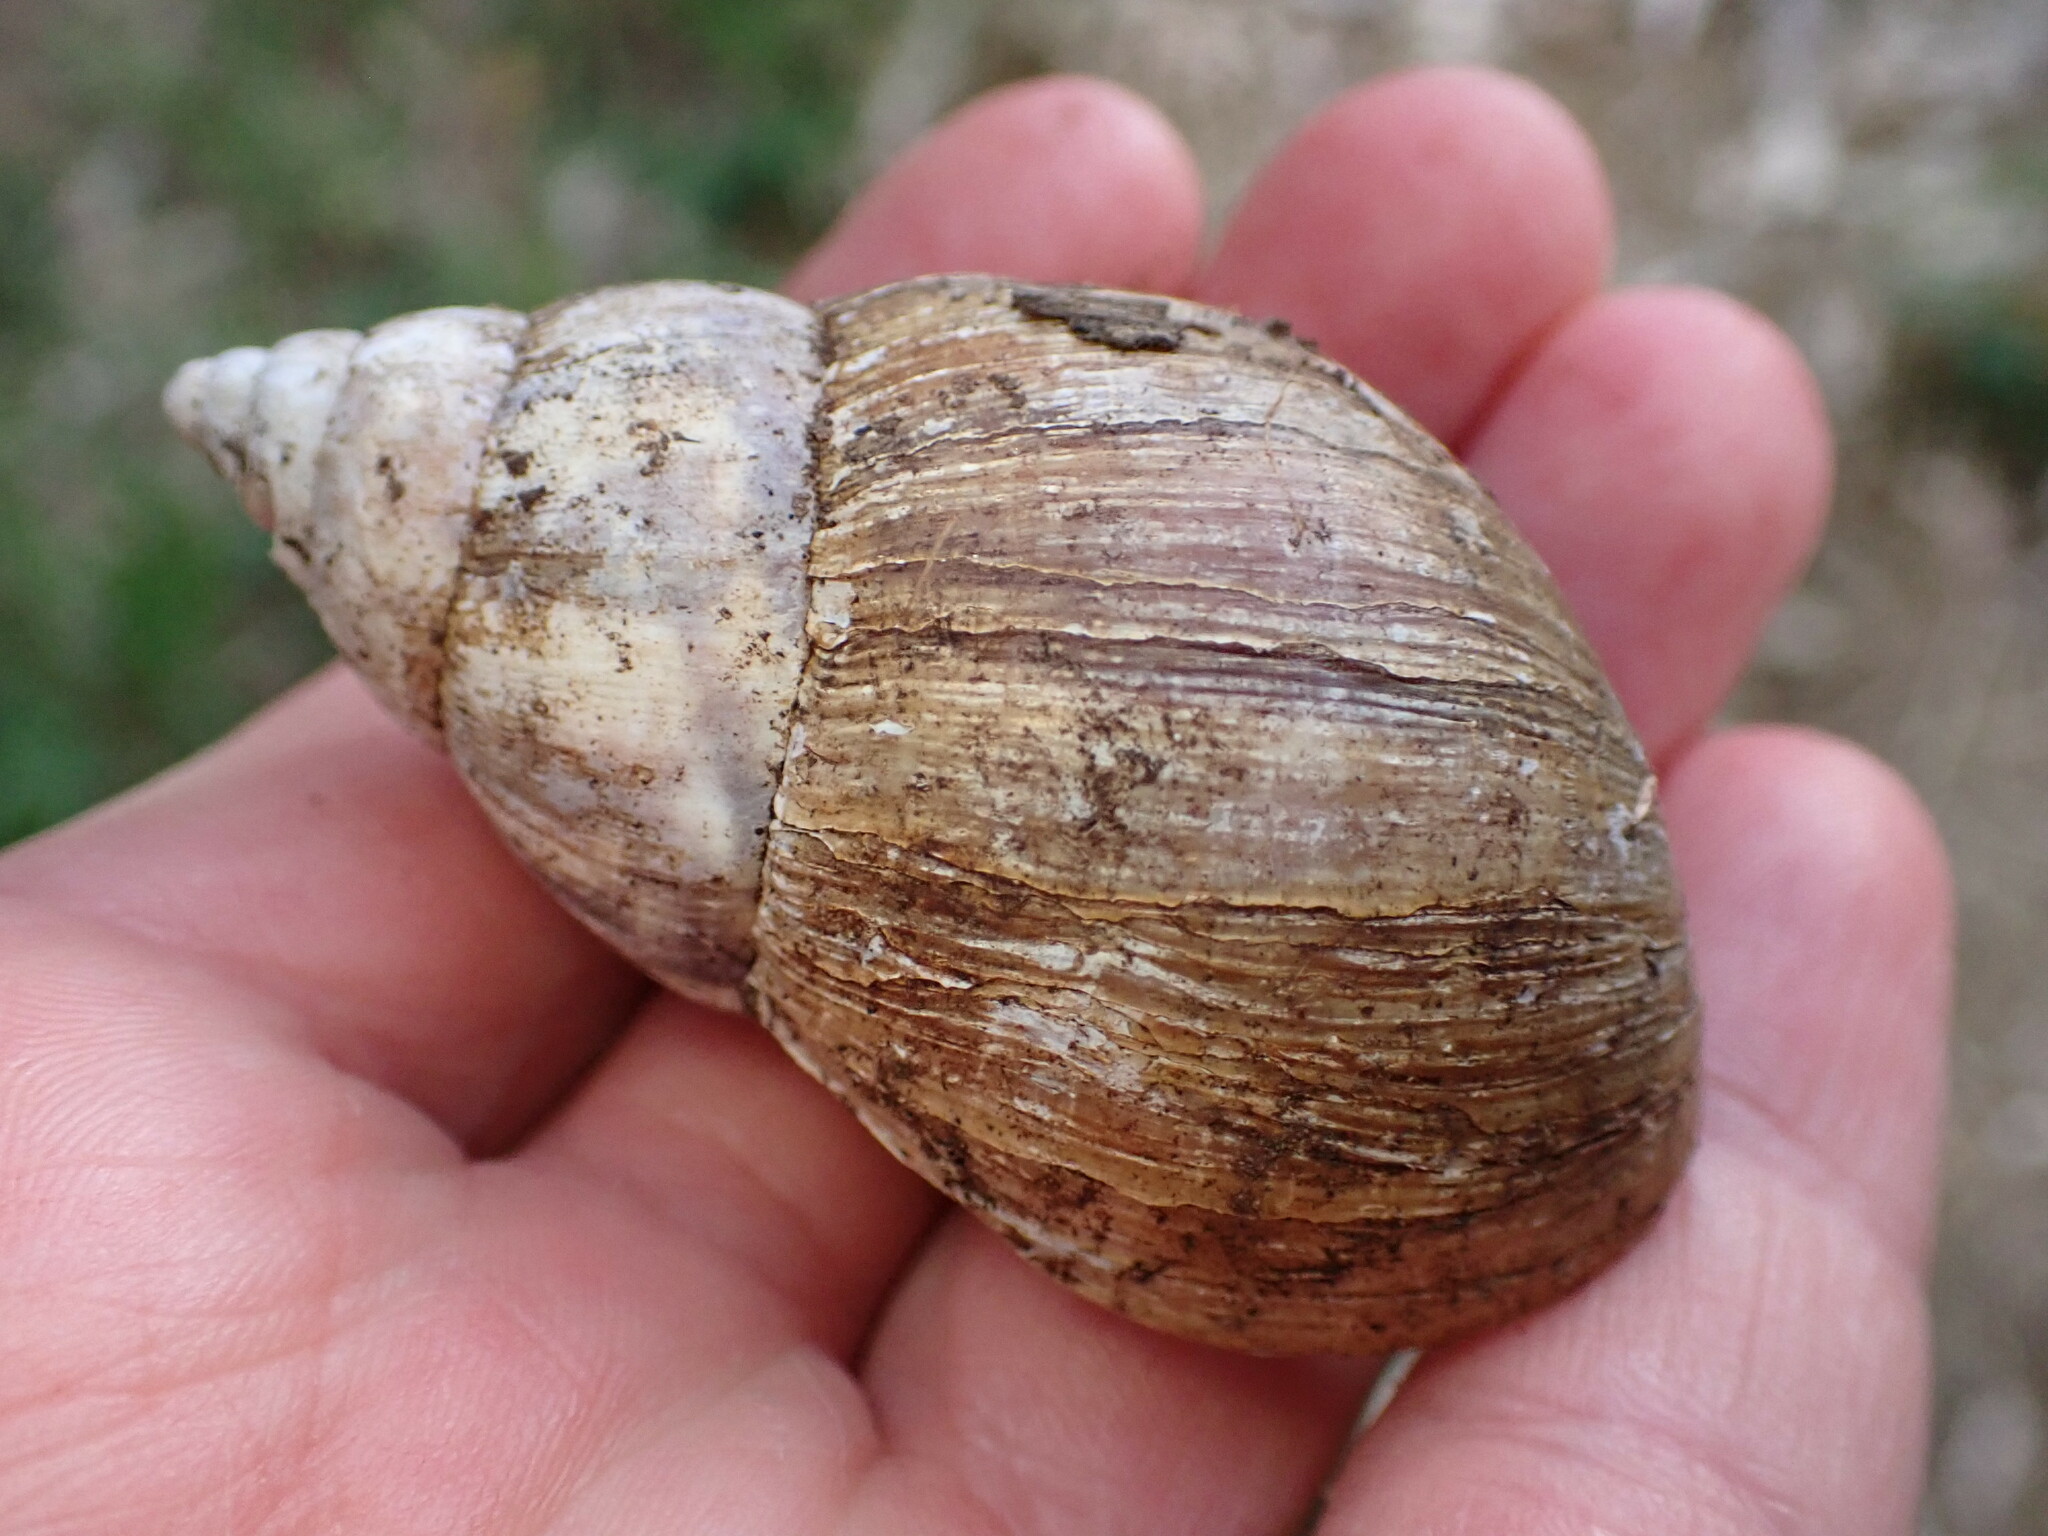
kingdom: Animalia
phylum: Mollusca
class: Gastropoda
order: Stylommatophora
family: Achatinidae
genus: Lissachatina
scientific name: Lissachatina fulica
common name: Giant african snail
